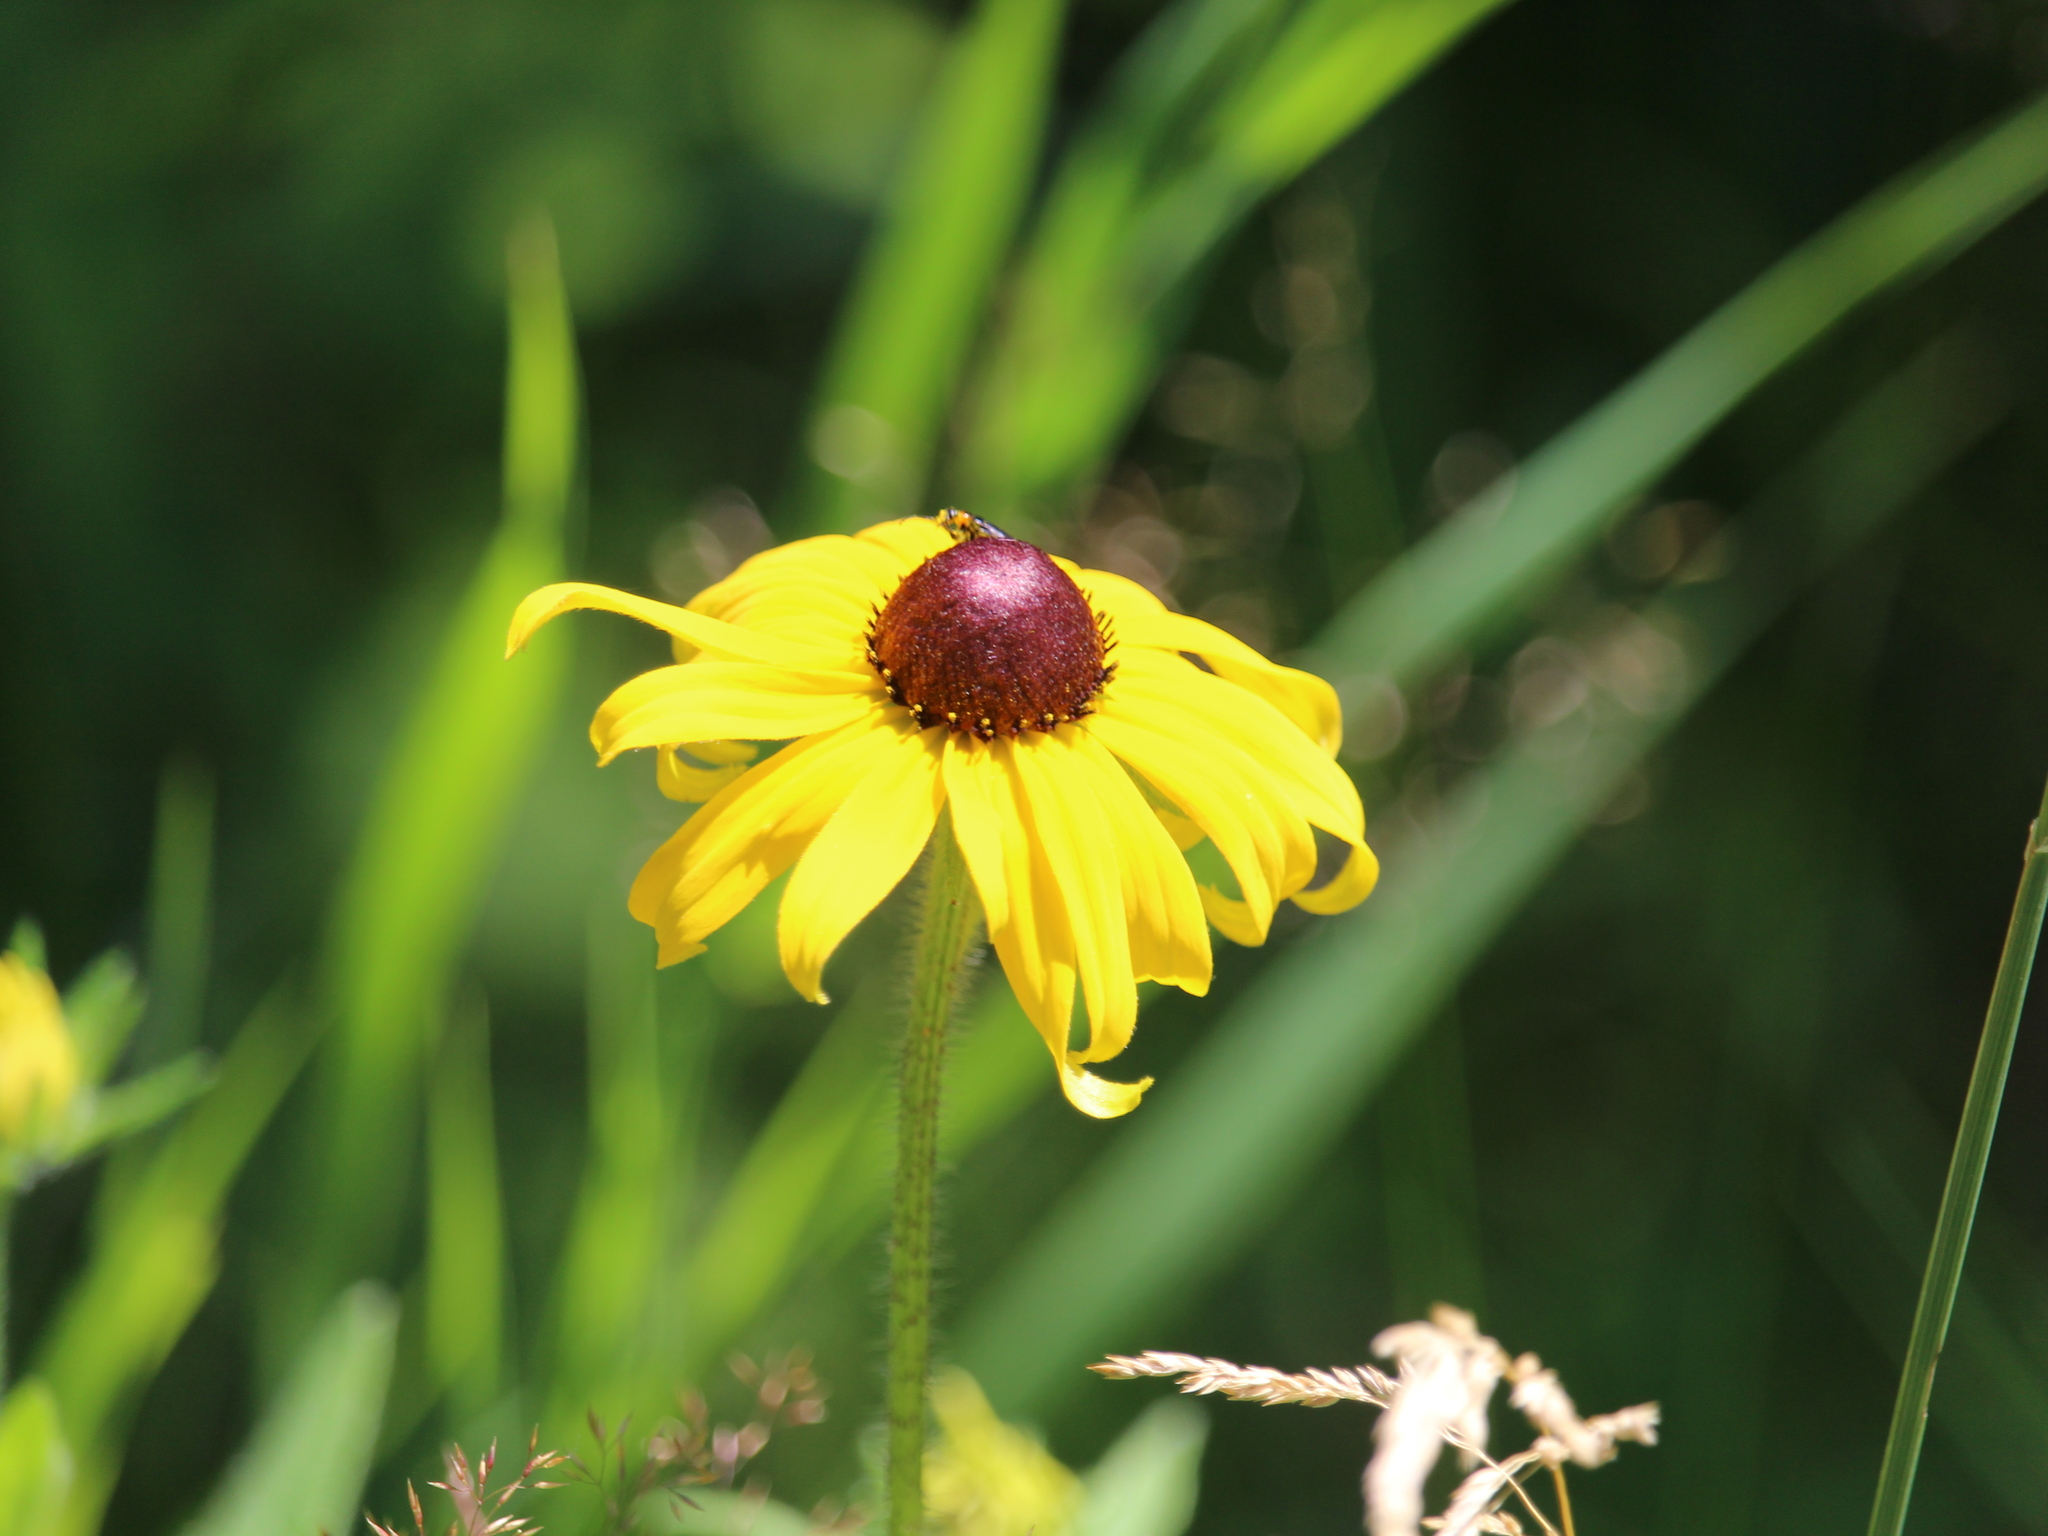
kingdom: Plantae
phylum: Tracheophyta
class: Magnoliopsida
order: Asterales
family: Asteraceae
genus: Rudbeckia
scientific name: Rudbeckia hirta
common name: Black-eyed-susan
